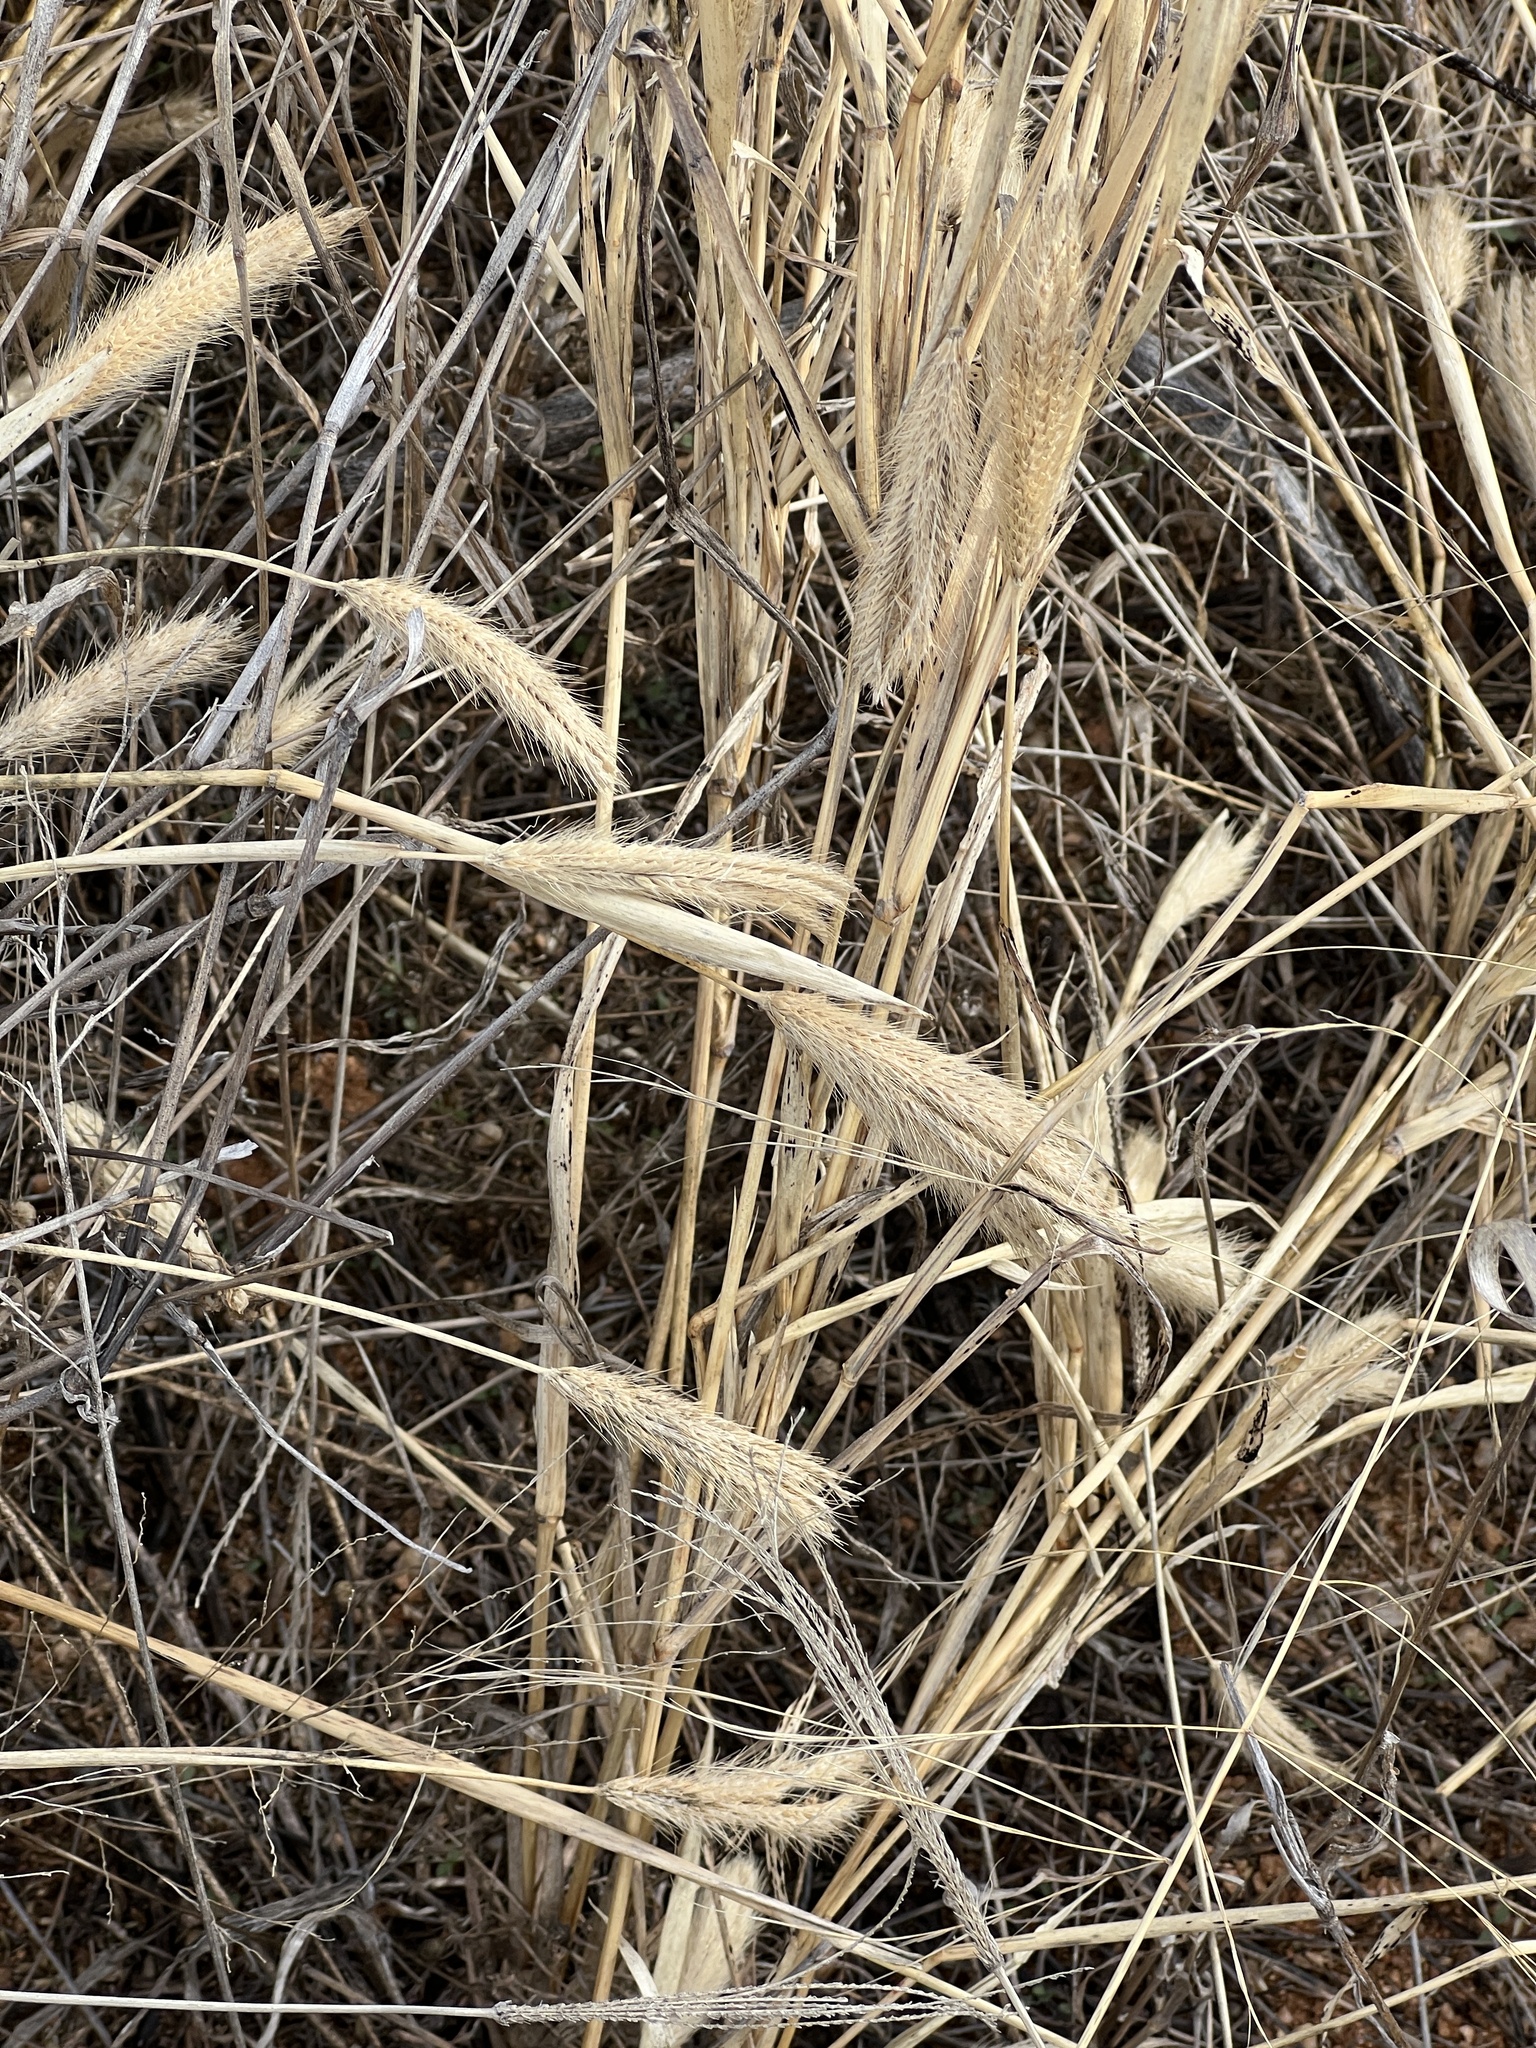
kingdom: Plantae
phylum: Tracheophyta
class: Liliopsida
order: Poales
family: Poaceae
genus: Chloris
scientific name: Chloris virgata
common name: Feathery rhodes-grass
